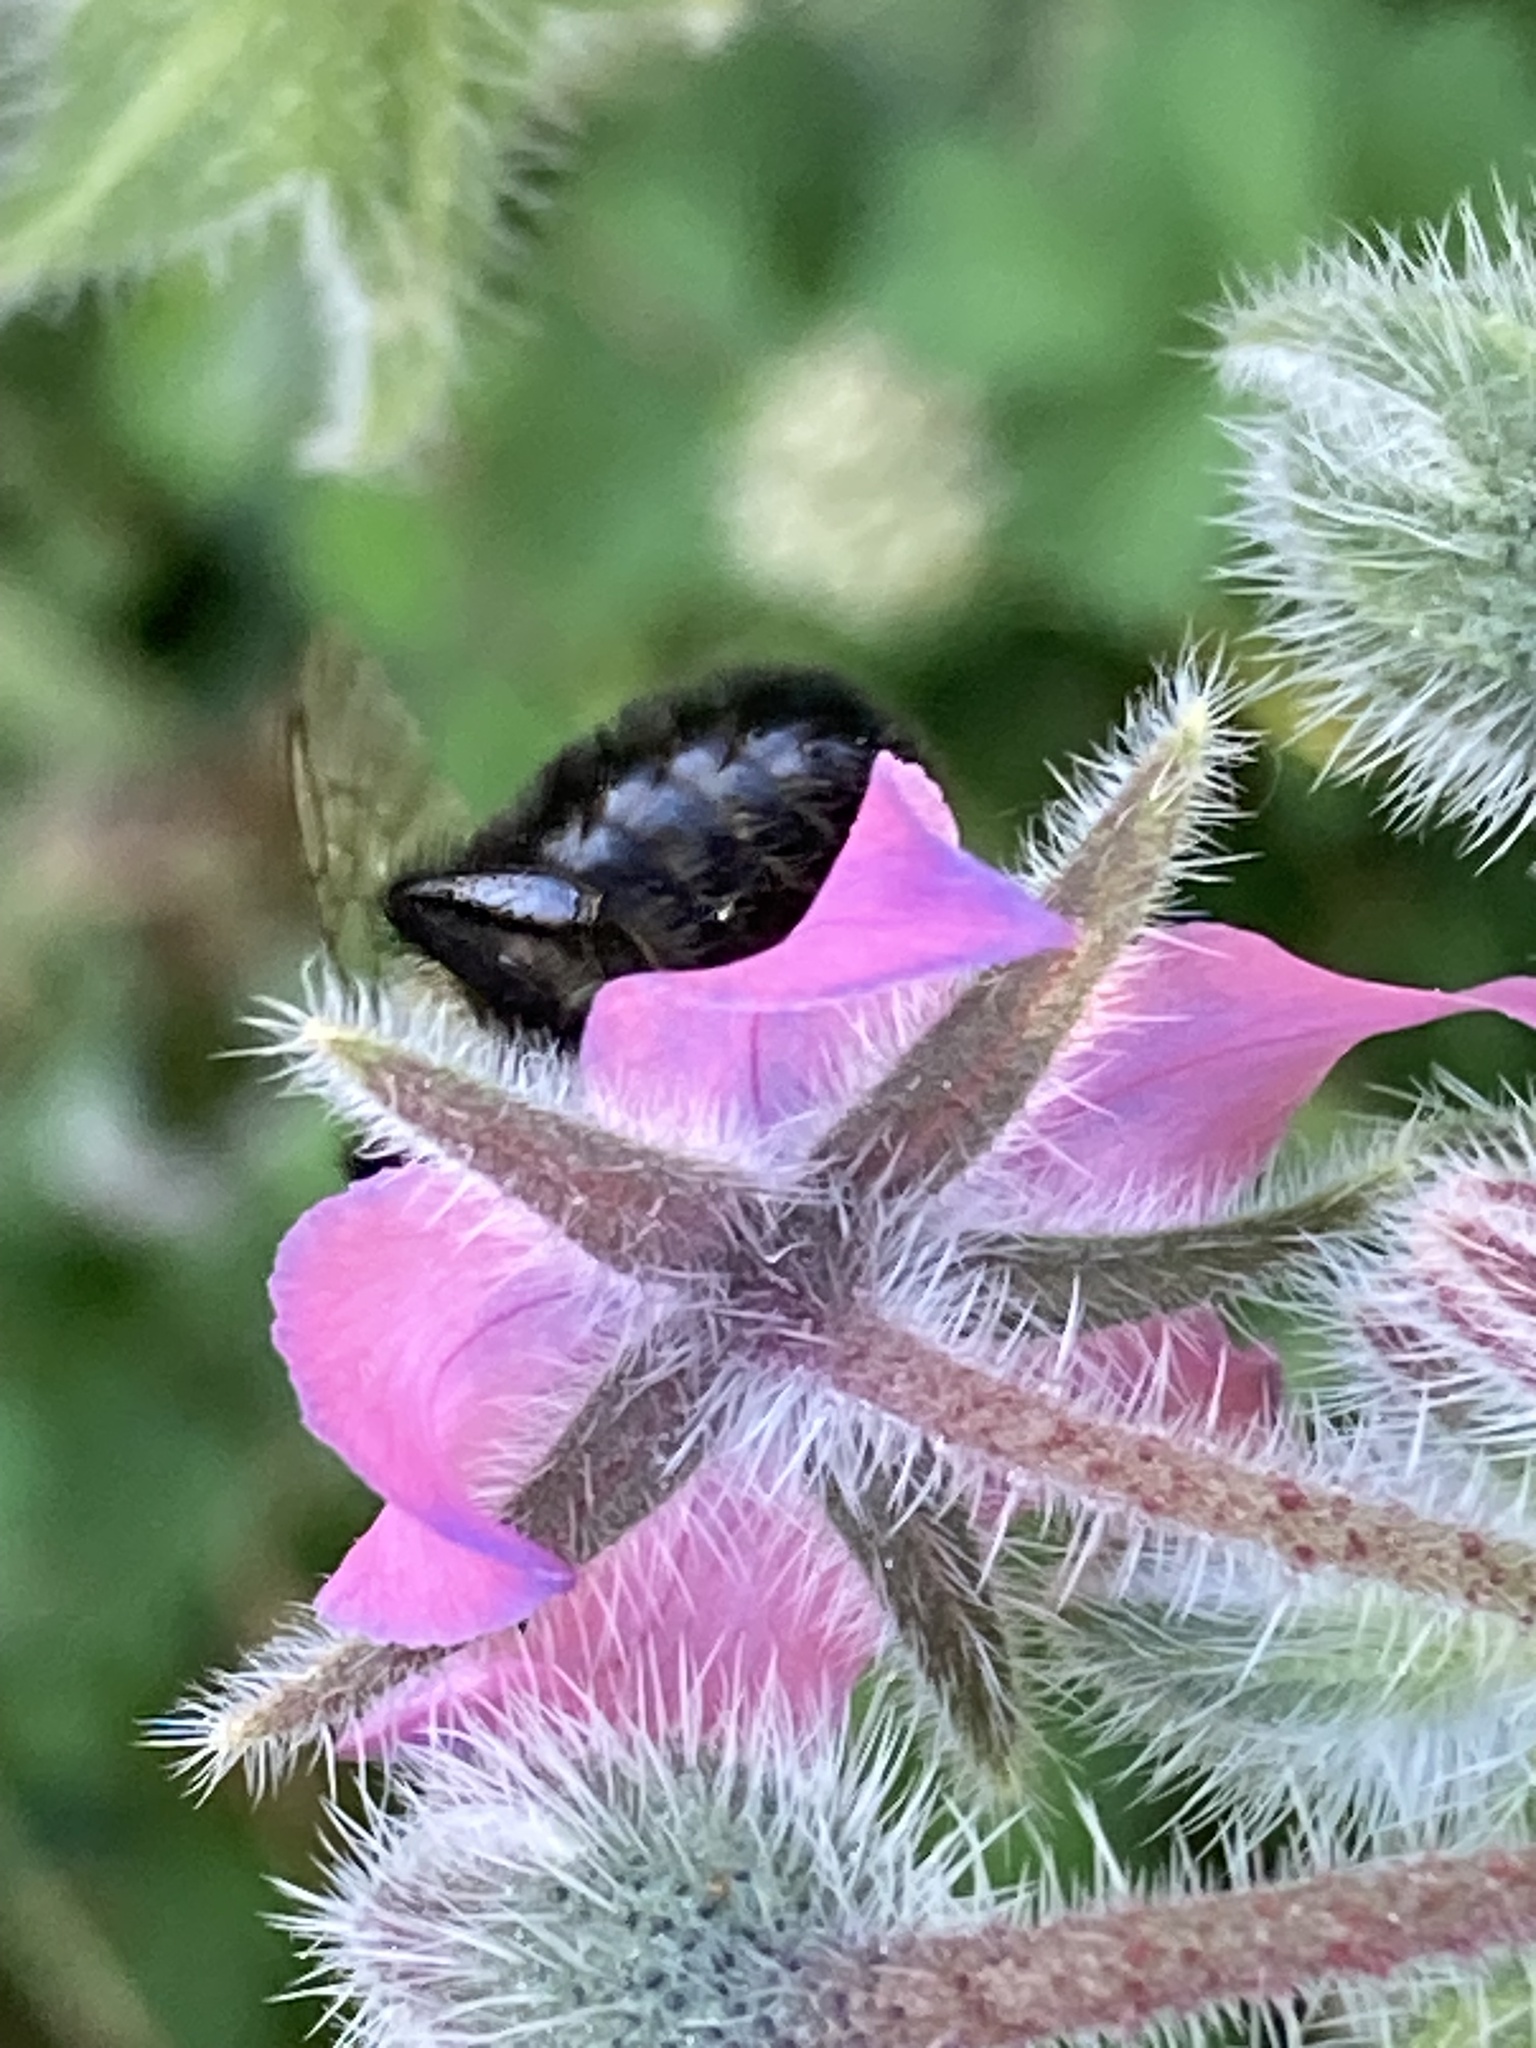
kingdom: Animalia
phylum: Arthropoda
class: Insecta
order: Hymenoptera
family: Apidae
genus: Bombus
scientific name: Bombus impatiens
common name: Common eastern bumble bee
